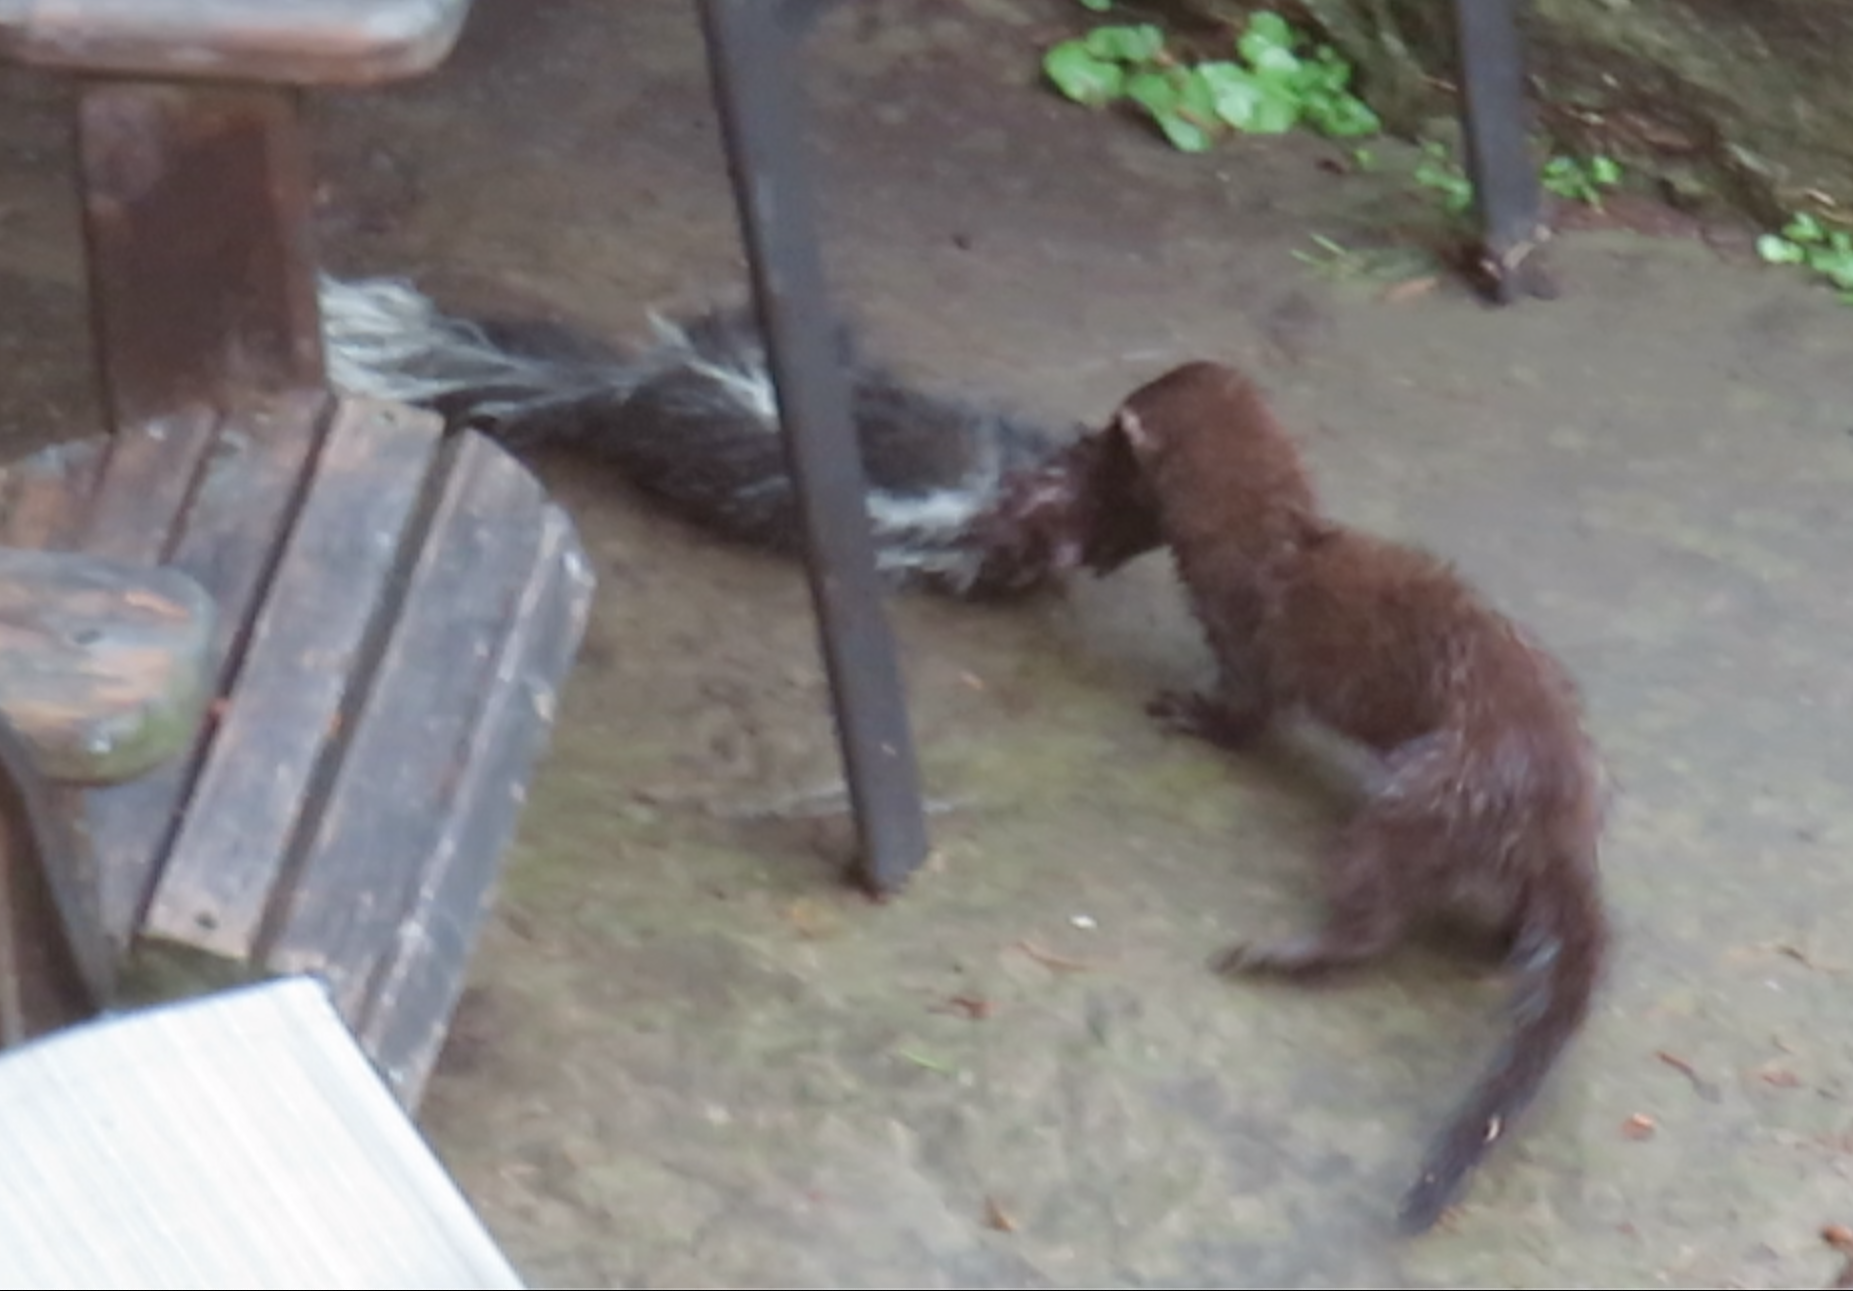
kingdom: Animalia
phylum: Chordata
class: Mammalia
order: Carnivora
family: Mustelidae
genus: Mustela
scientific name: Mustela
